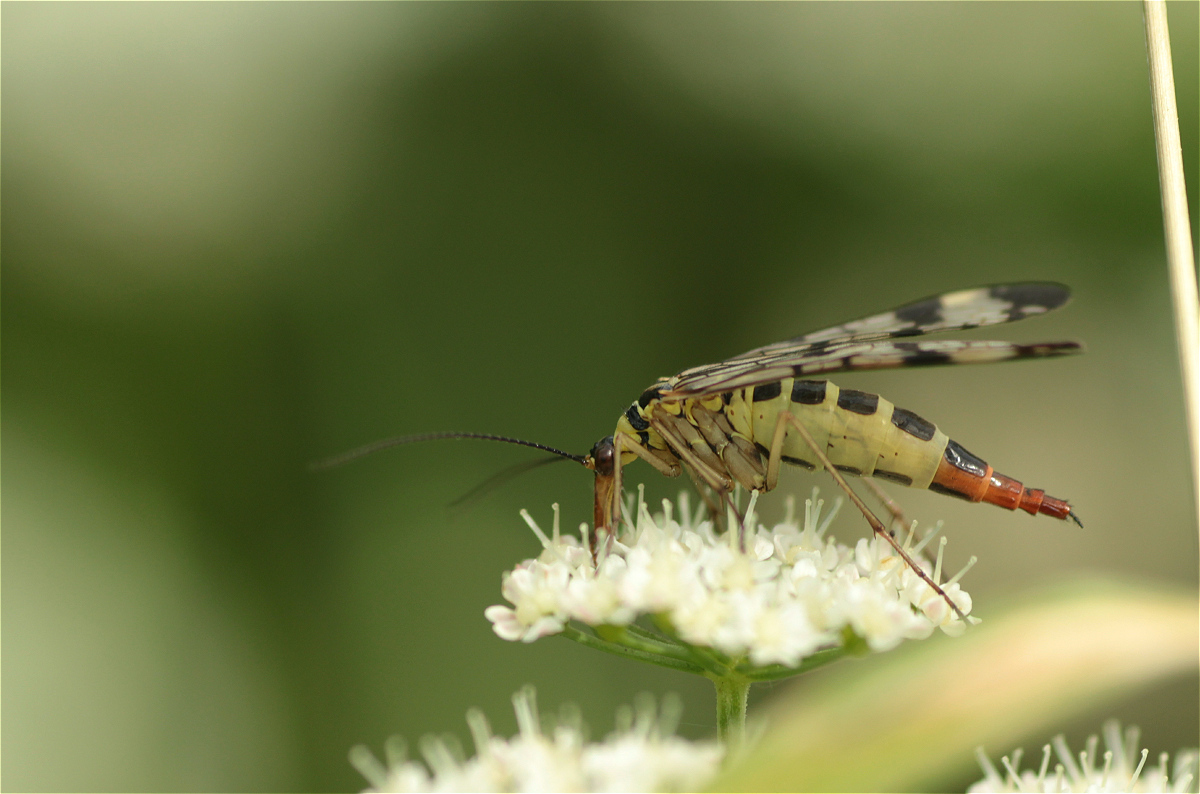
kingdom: Animalia
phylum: Arthropoda
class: Insecta
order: Mecoptera
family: Panorpidae
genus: Panorpa
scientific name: Panorpa communis
